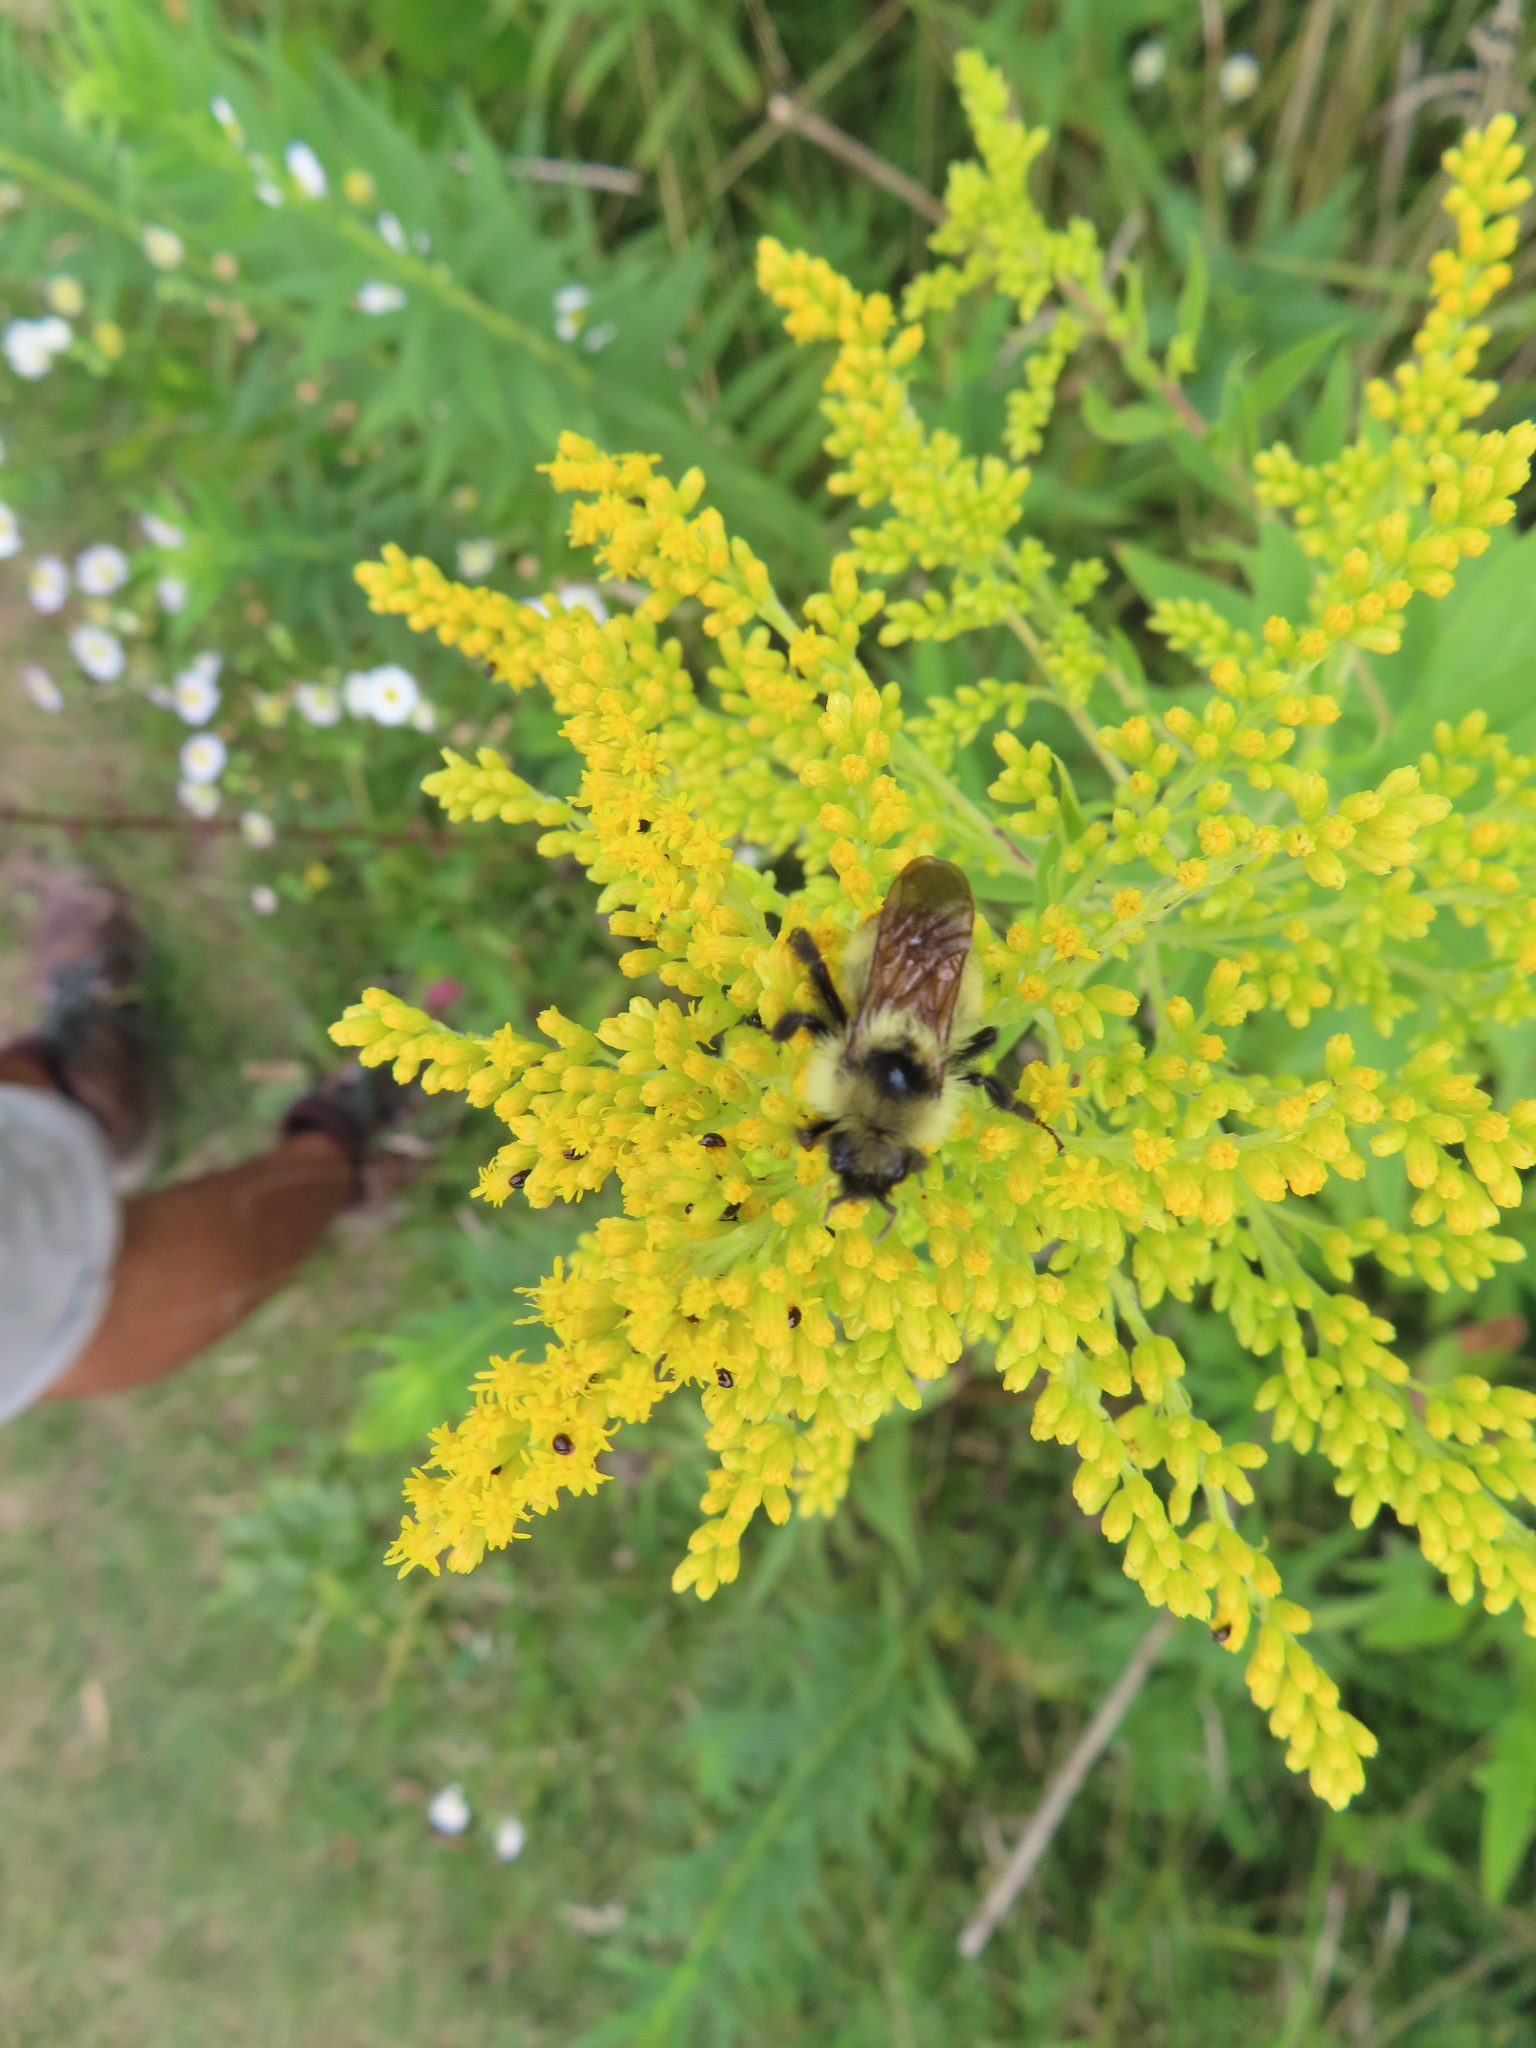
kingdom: Animalia
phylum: Arthropoda
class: Insecta
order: Hymenoptera
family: Apidae
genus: Bombus
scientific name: Bombus citrinus
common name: Lemon cuckoo bumble bee
